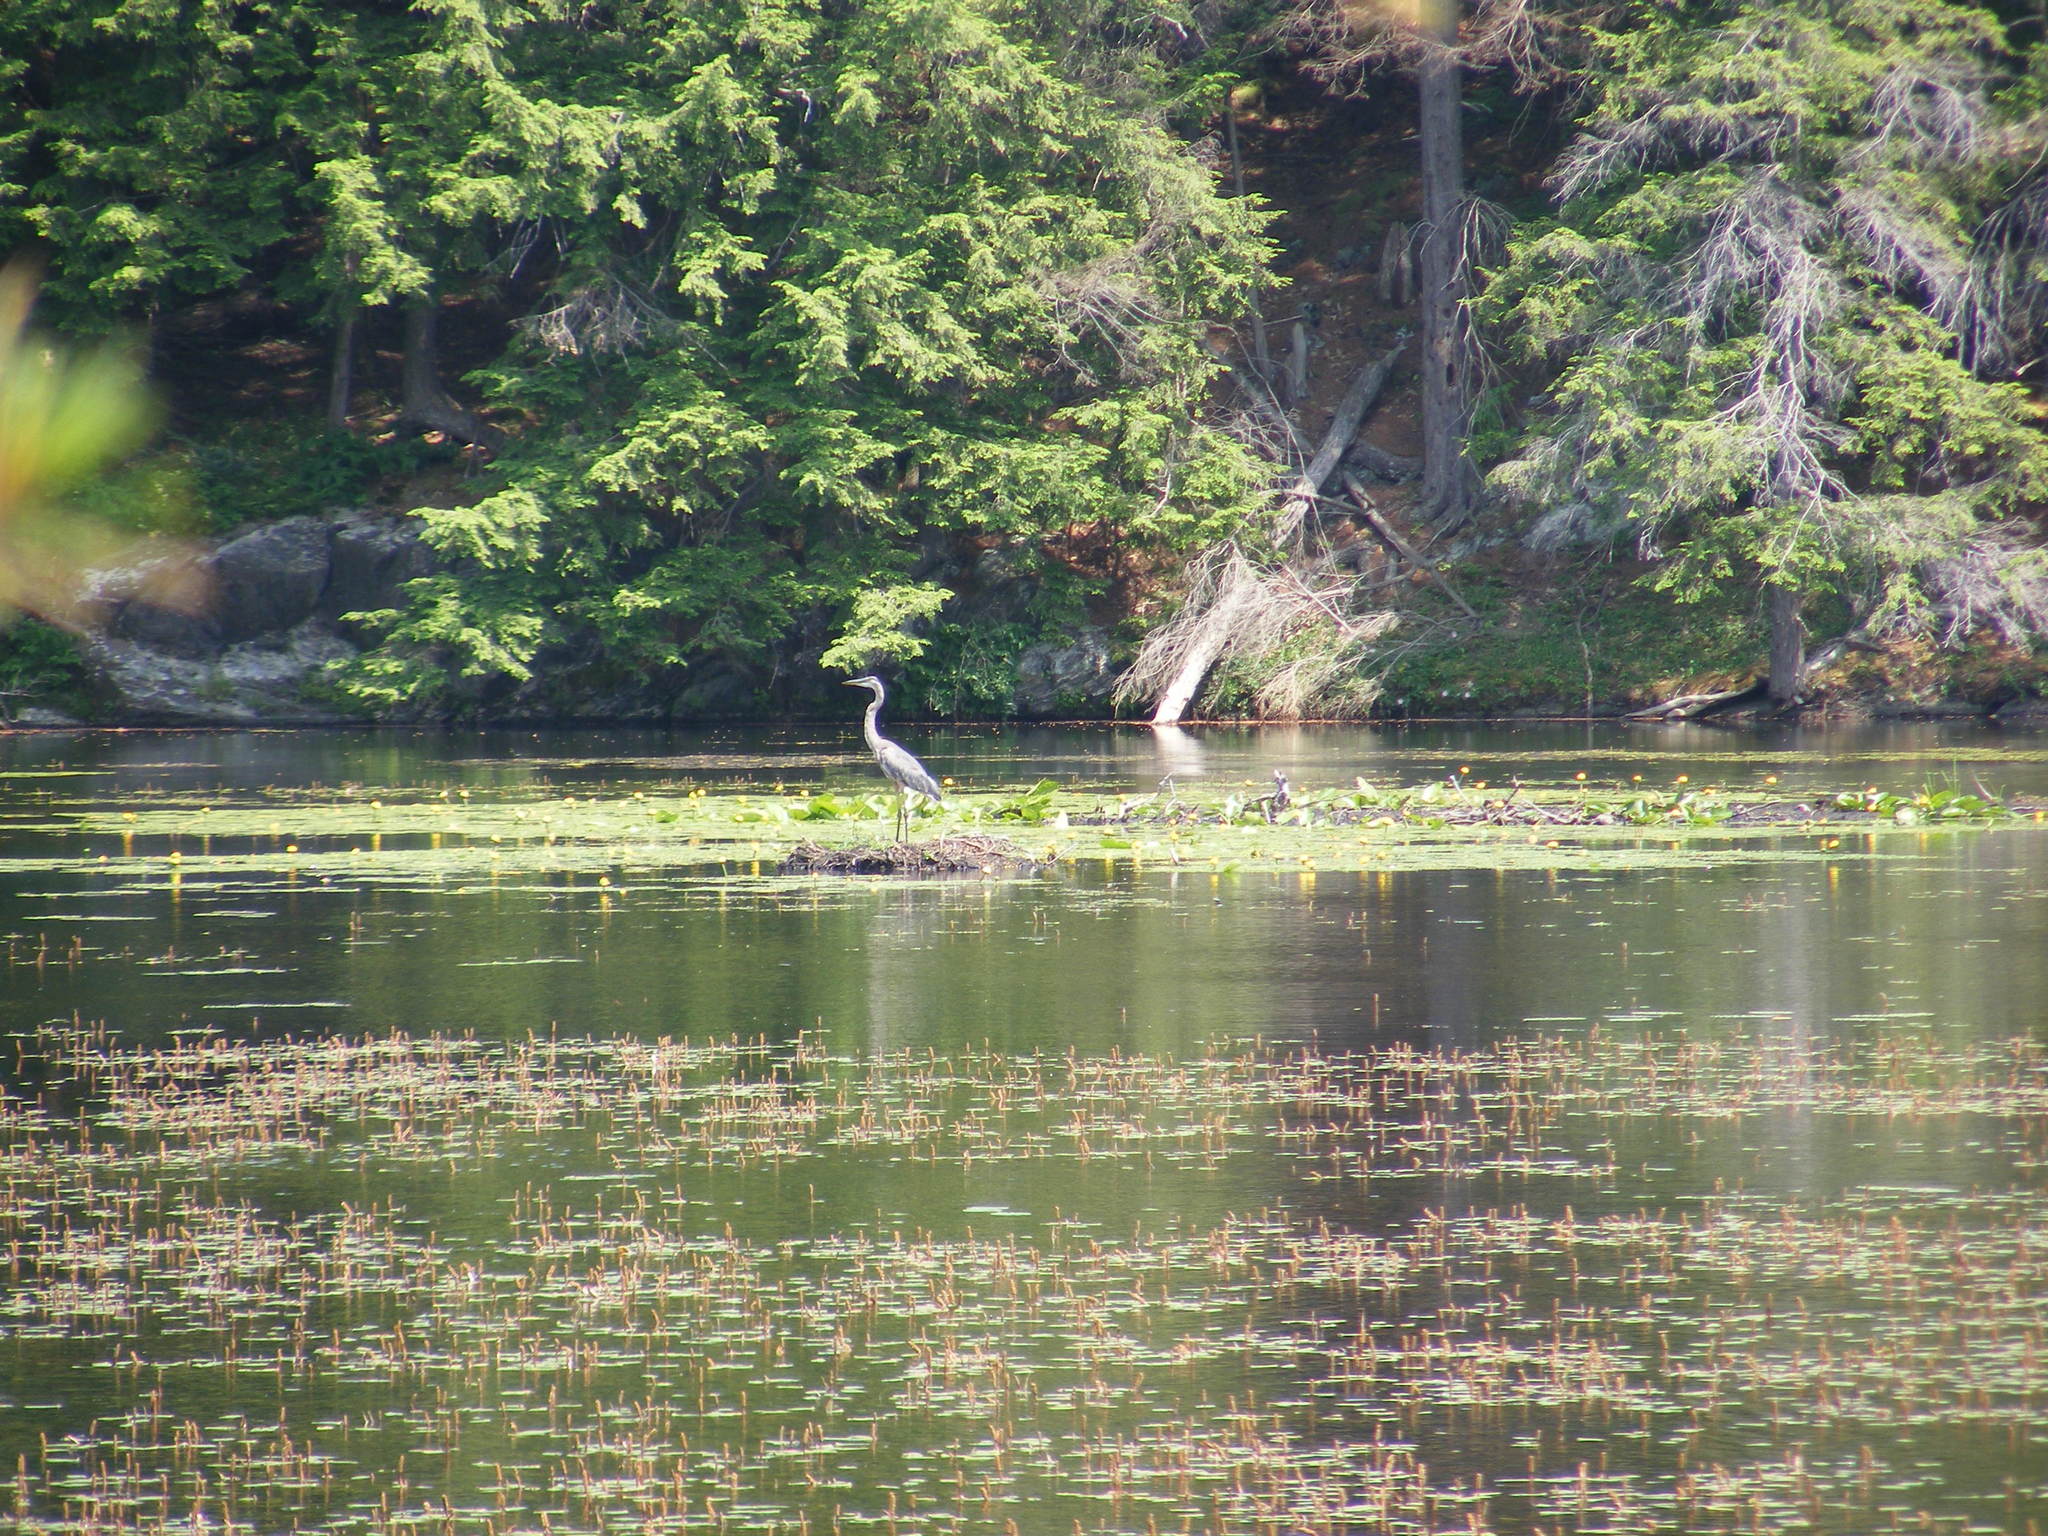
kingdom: Animalia
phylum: Chordata
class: Aves
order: Pelecaniformes
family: Ardeidae
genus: Ardea
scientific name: Ardea herodias
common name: Great blue heron
